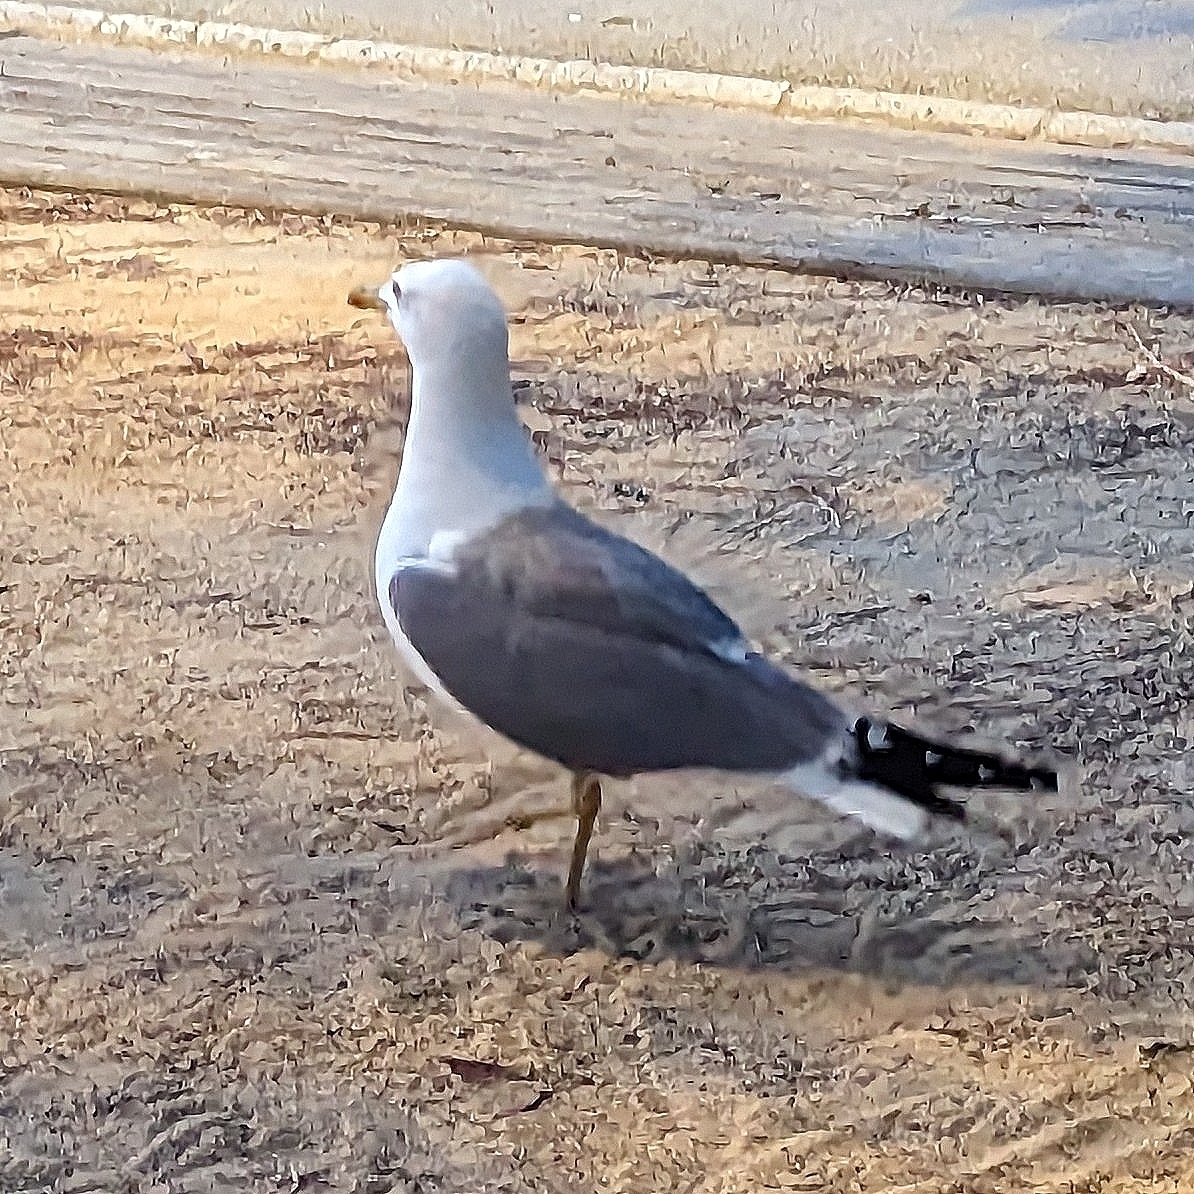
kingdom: Animalia
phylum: Chordata
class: Aves
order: Charadriiformes
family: Laridae
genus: Larus
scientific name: Larus fuscus
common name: Lesser black-backed gull
